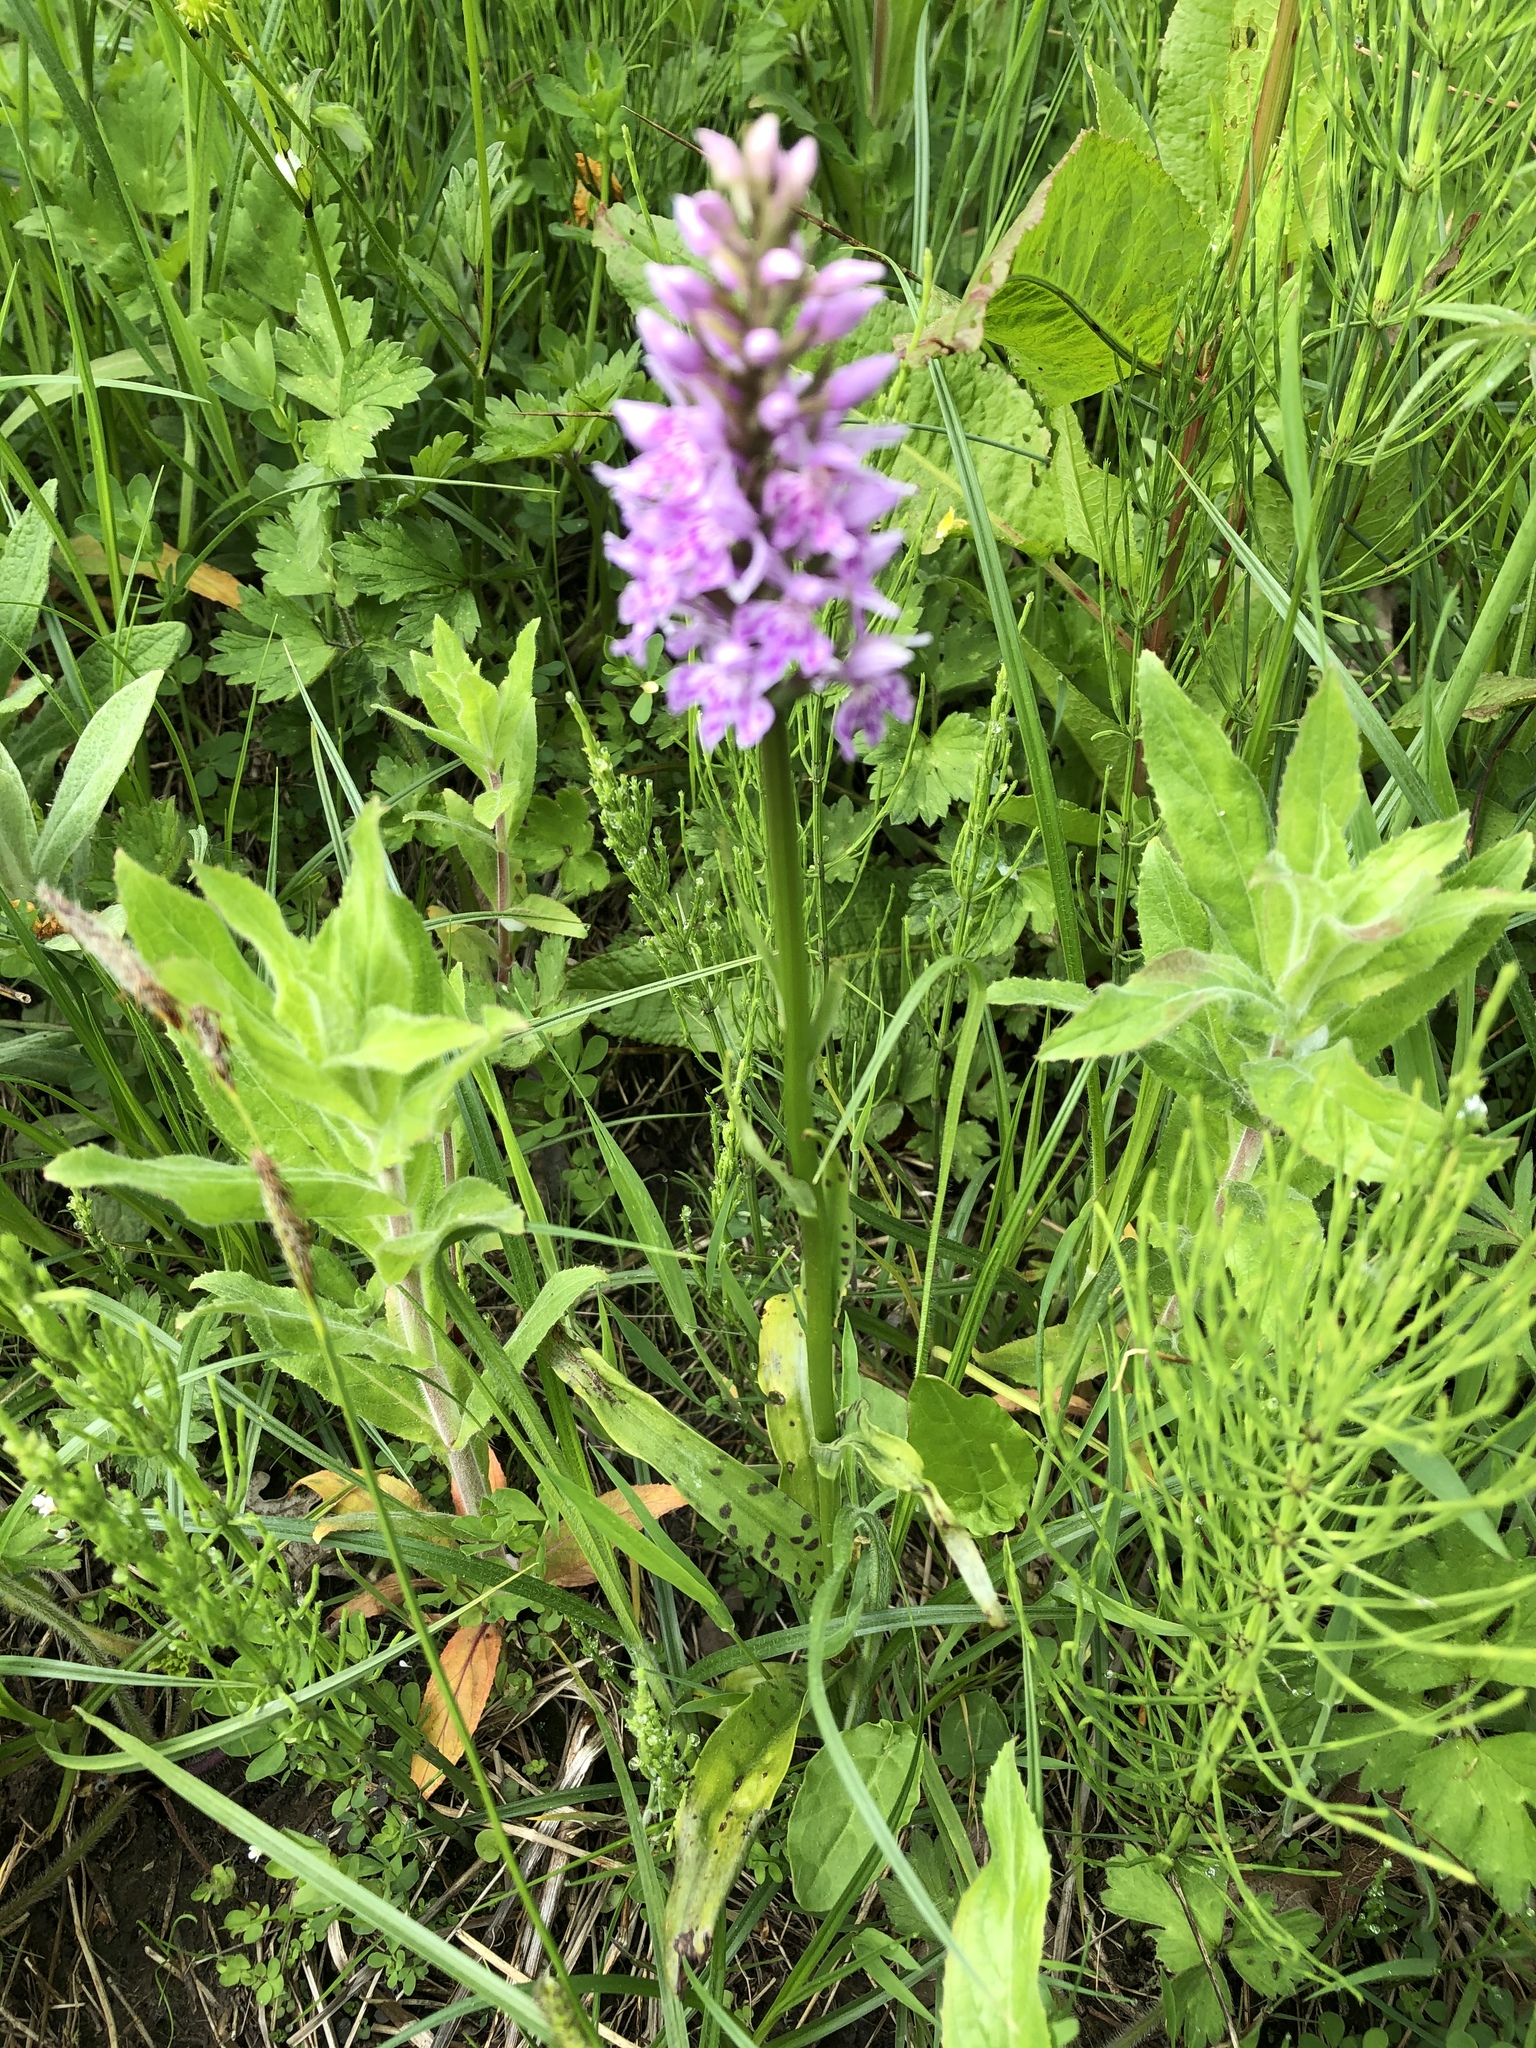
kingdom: Plantae
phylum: Tracheophyta
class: Liliopsida
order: Asparagales
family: Orchidaceae
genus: Dactylorhiza
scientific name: Dactylorhiza maculata
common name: Heath spotted-orchid
